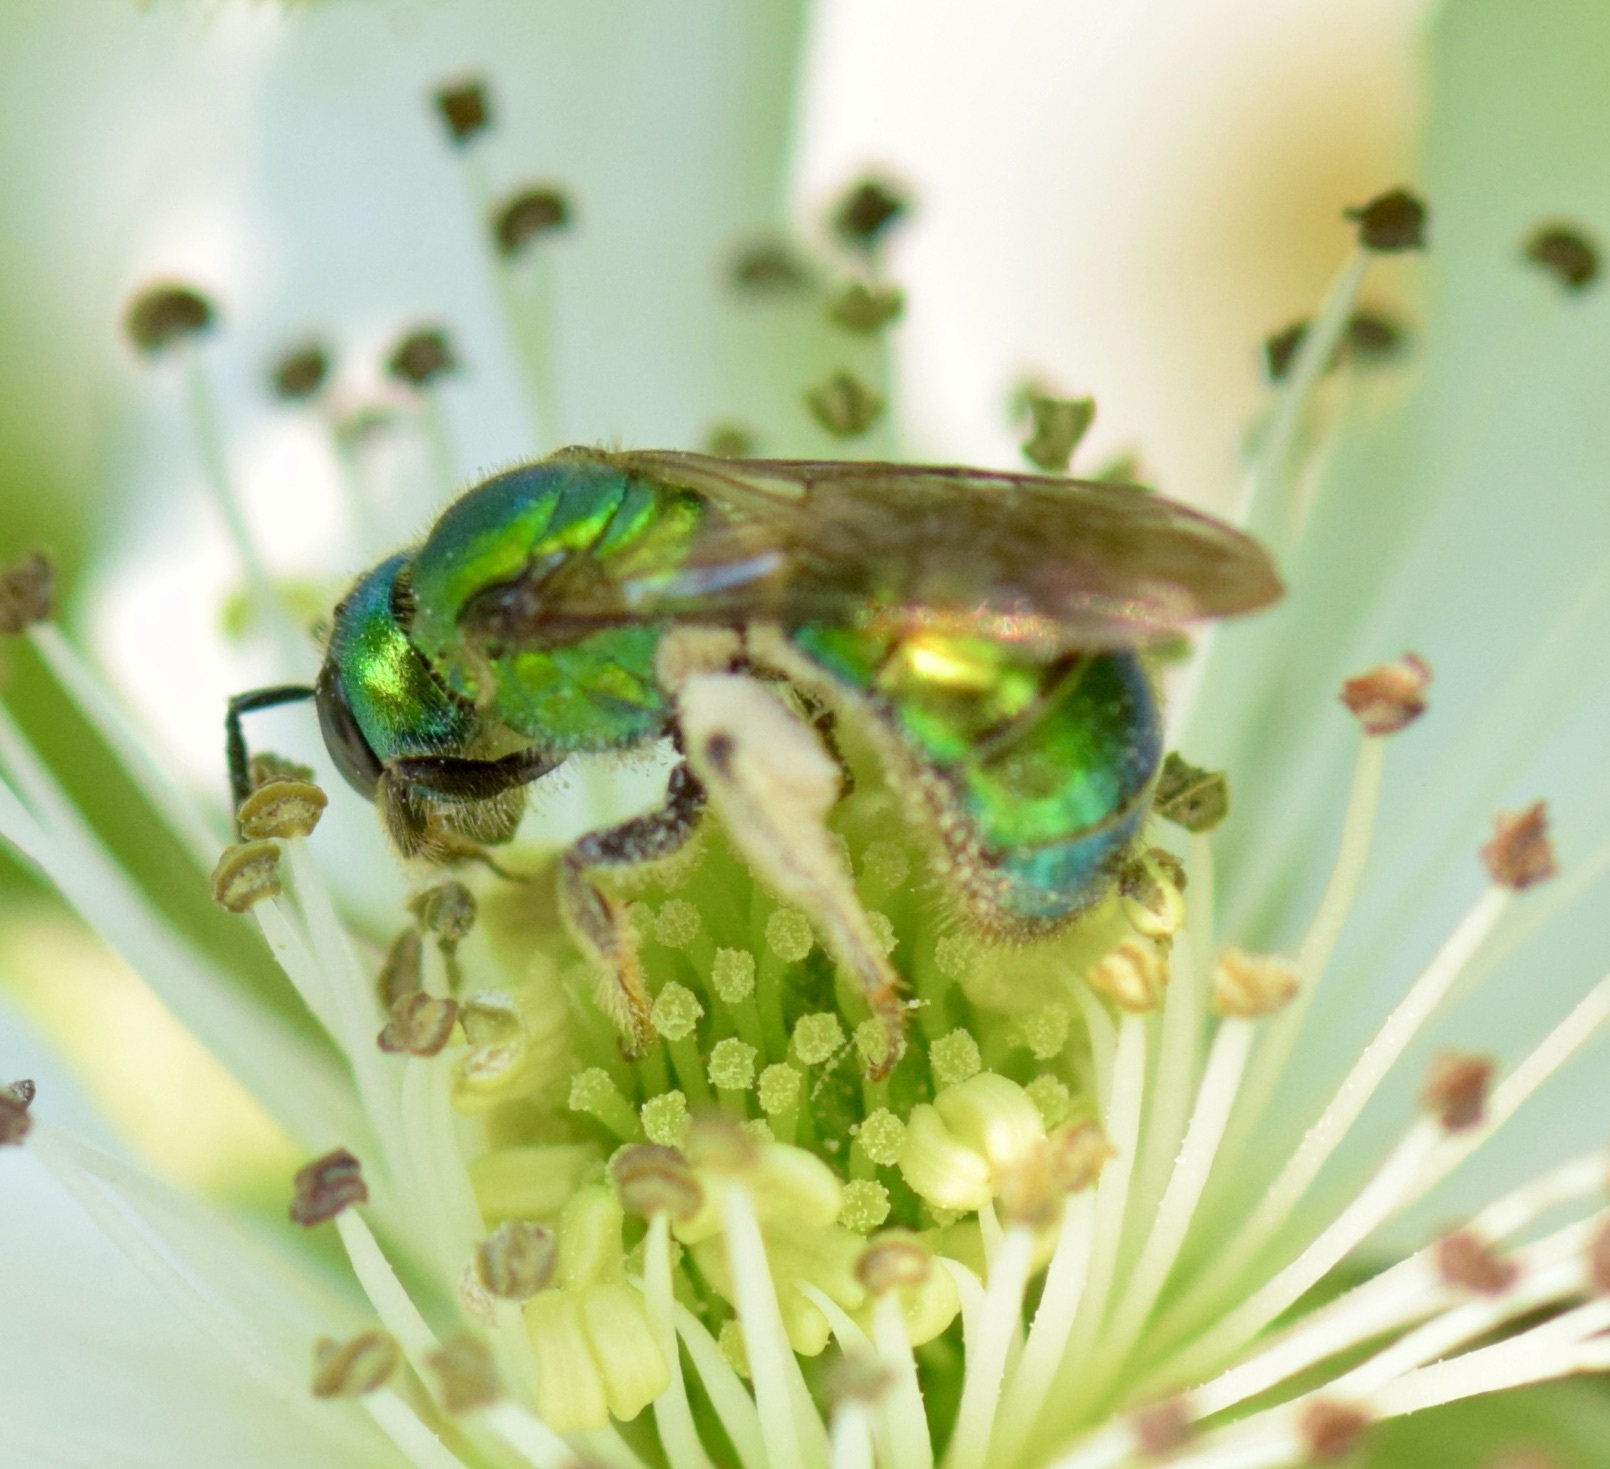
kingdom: Animalia
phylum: Arthropoda
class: Insecta
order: Hymenoptera
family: Halictidae
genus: Augochlora
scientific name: Augochlora pura
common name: Pure green sweat bee
